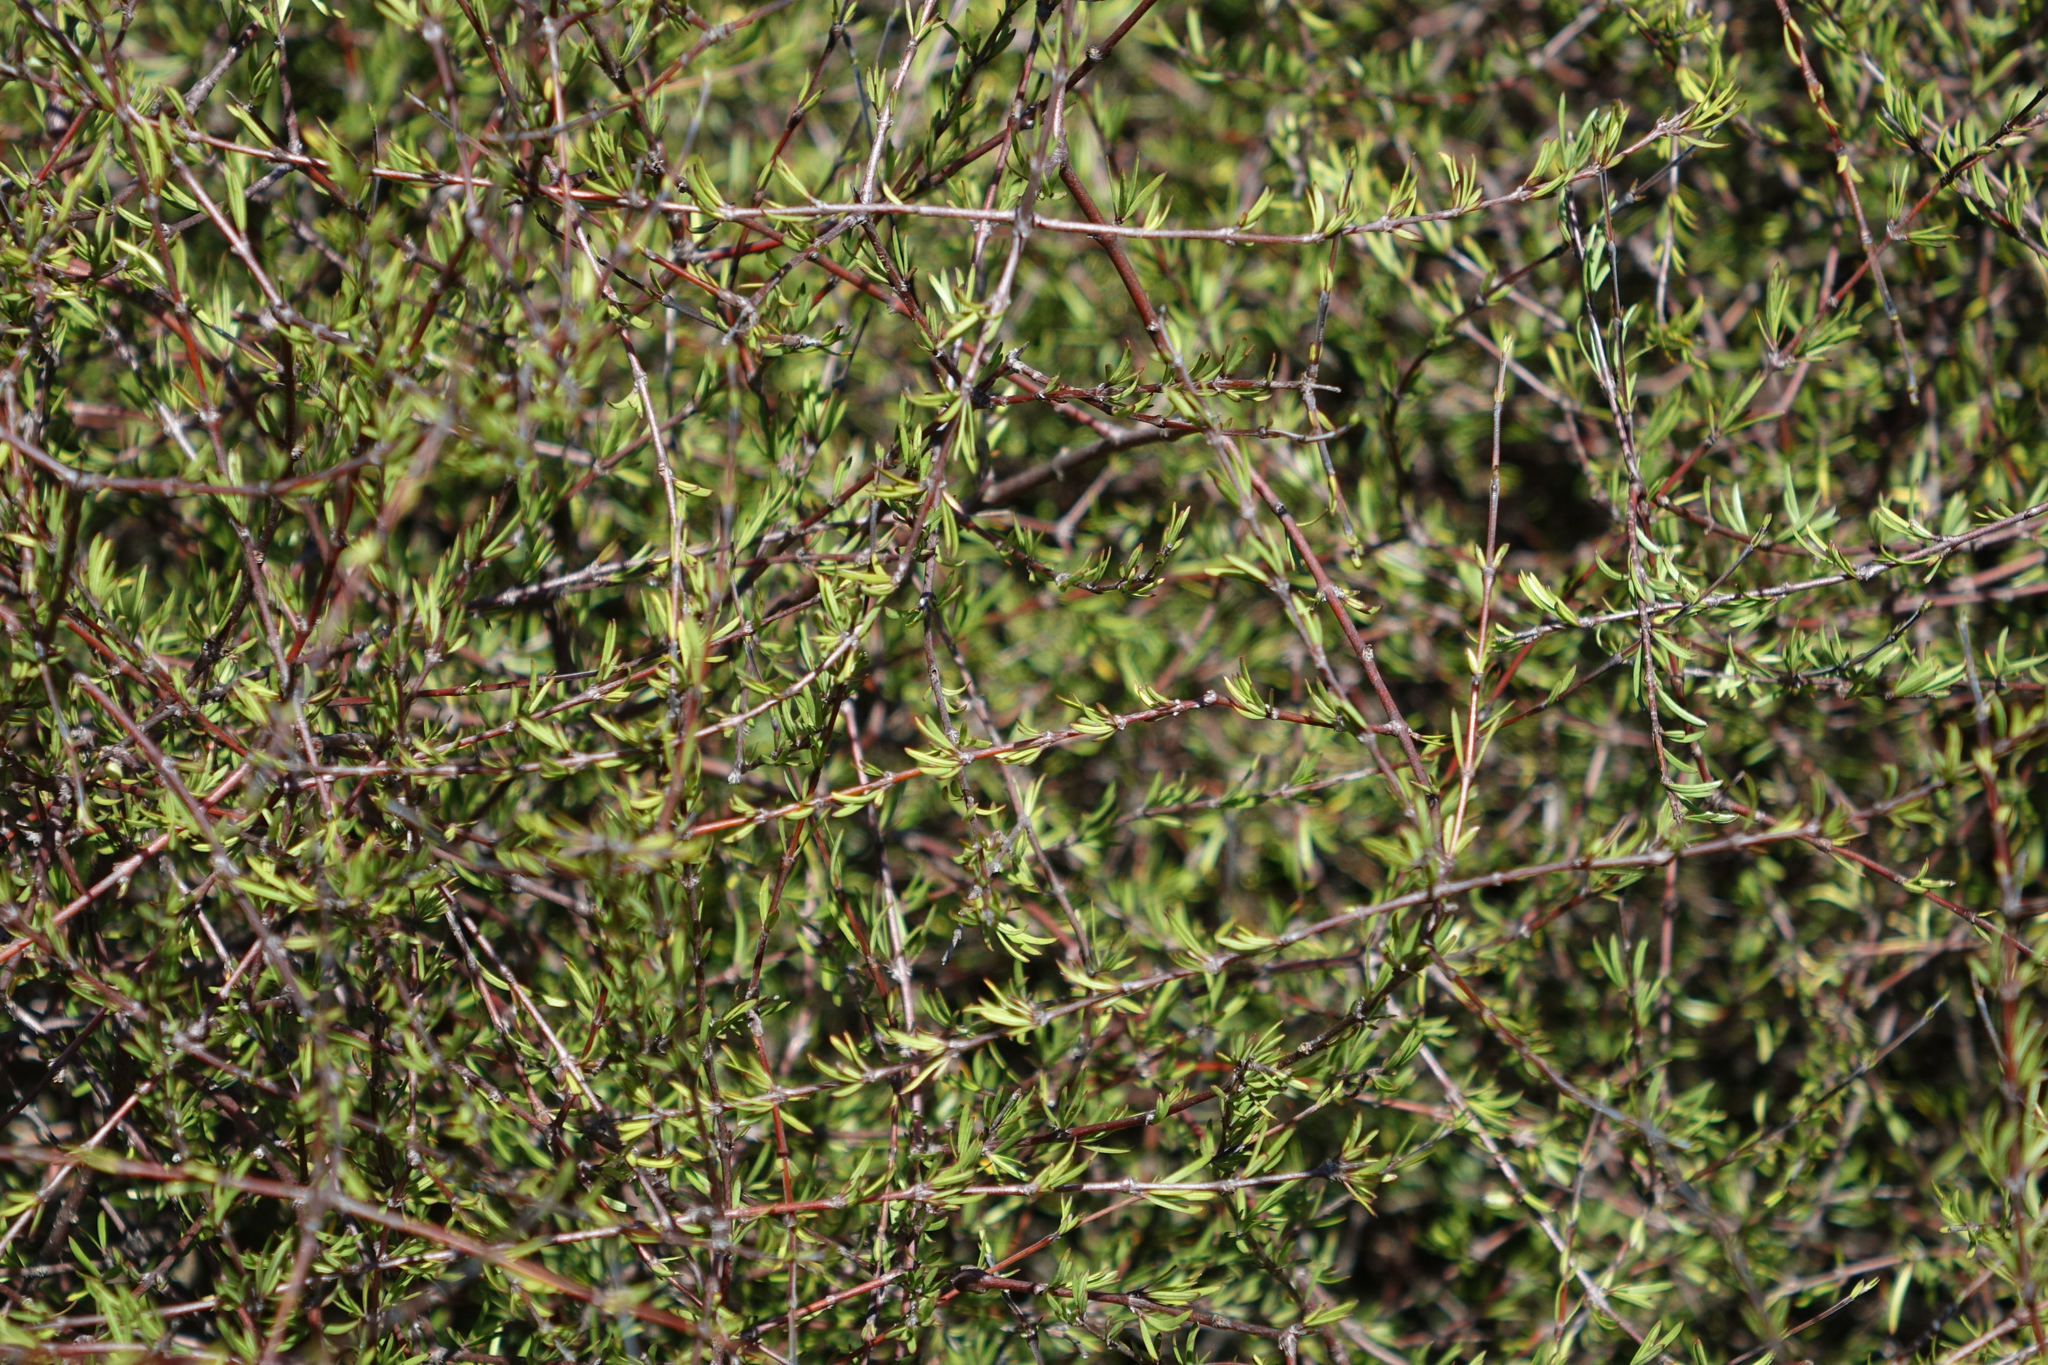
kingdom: Plantae
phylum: Tracheophyta
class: Magnoliopsida
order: Gentianales
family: Rubiaceae
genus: Coprosma
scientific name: Coprosma intertexta
